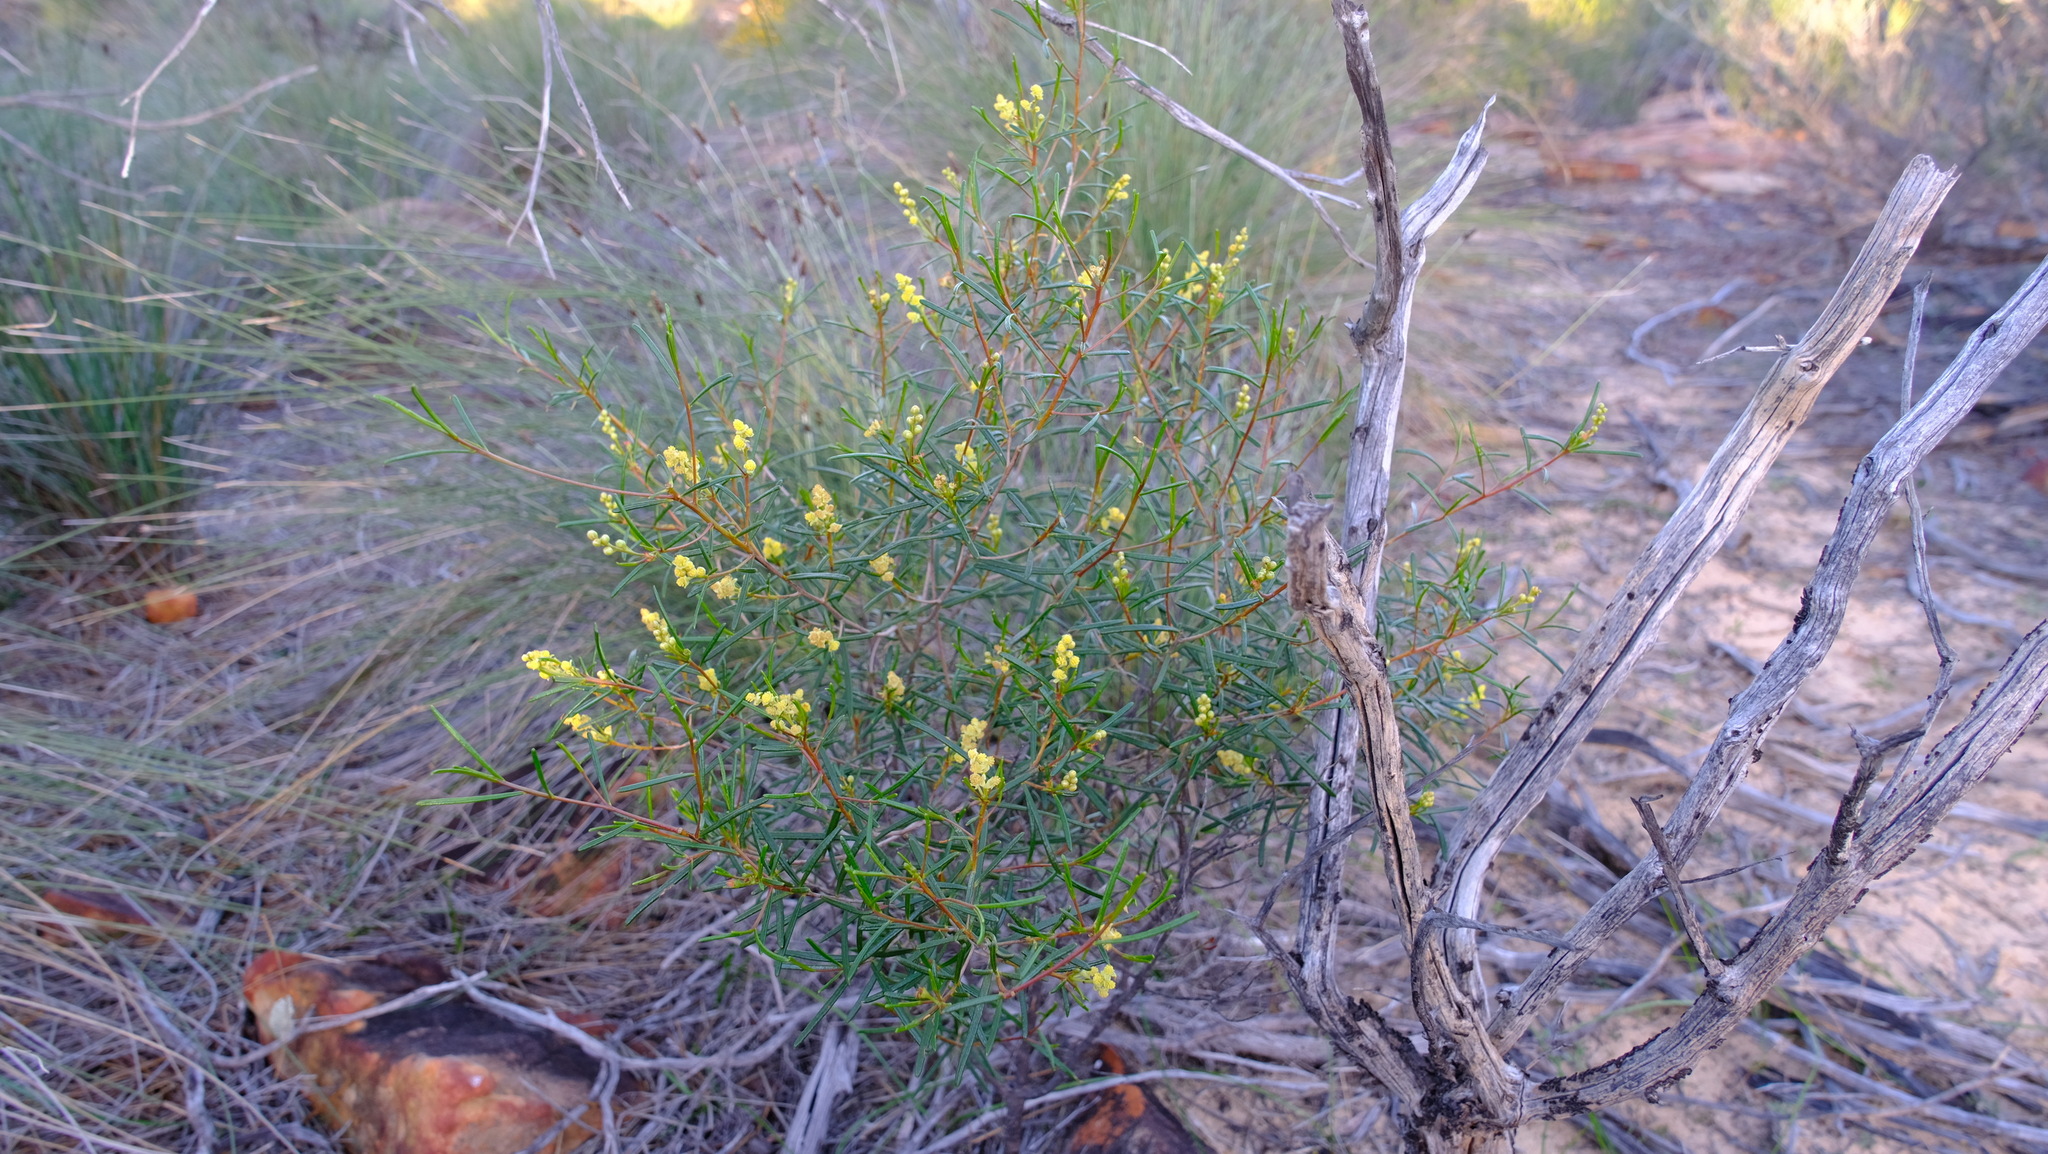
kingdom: Plantae
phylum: Tracheophyta
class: Magnoliopsida
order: Malpighiales
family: Euphorbiaceae
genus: Ricinocarpos
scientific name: Ricinocarpos muricatus
